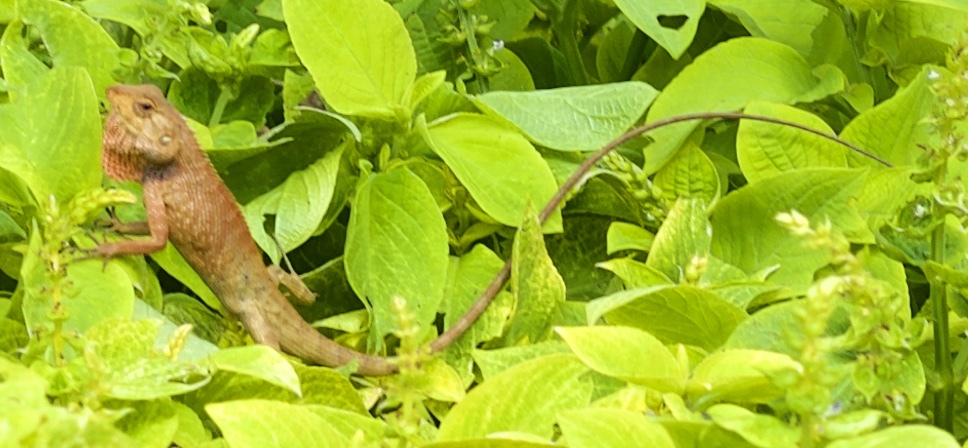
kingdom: Animalia
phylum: Chordata
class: Squamata
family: Agamidae
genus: Calotes
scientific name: Calotes versicolor
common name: Oriental garden lizard
